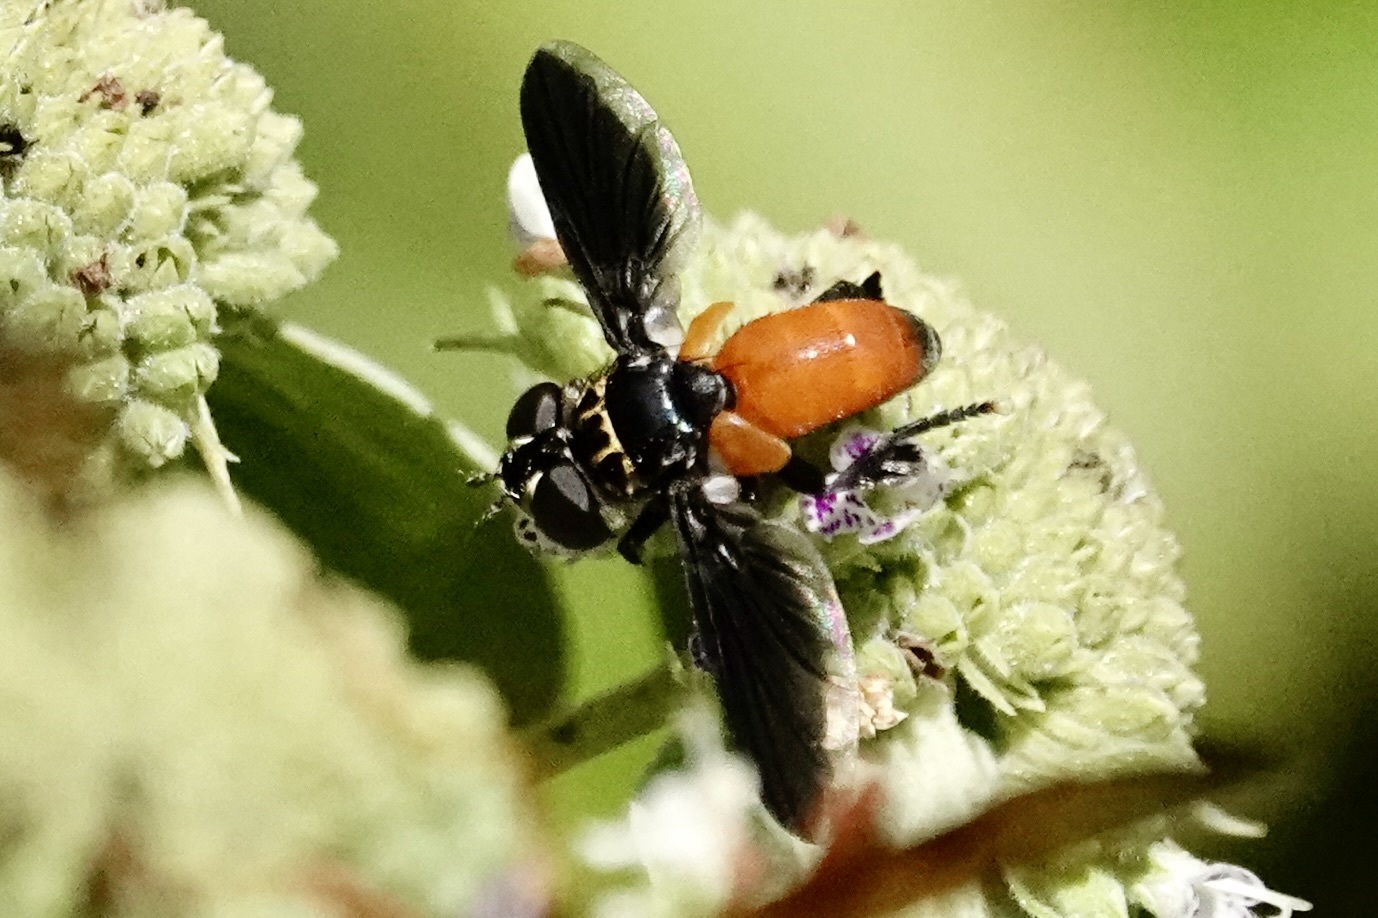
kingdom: Animalia
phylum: Arthropoda
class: Insecta
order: Diptera
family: Tachinidae
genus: Trichopoda
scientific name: Trichopoda pennipes
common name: Tachinid fly
